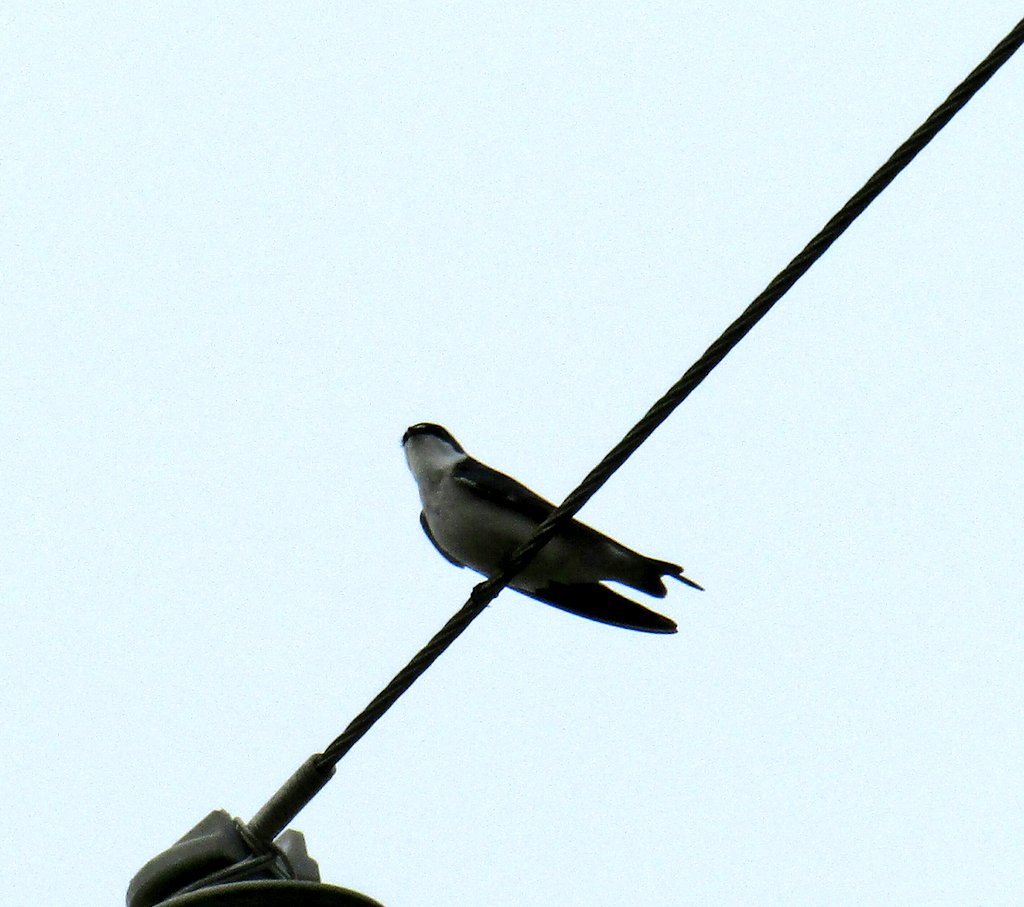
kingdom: Animalia
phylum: Chordata
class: Aves
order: Passeriformes
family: Hirundinidae
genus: Tachycineta
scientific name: Tachycineta leucorrhoa
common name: White-rumped swallow
